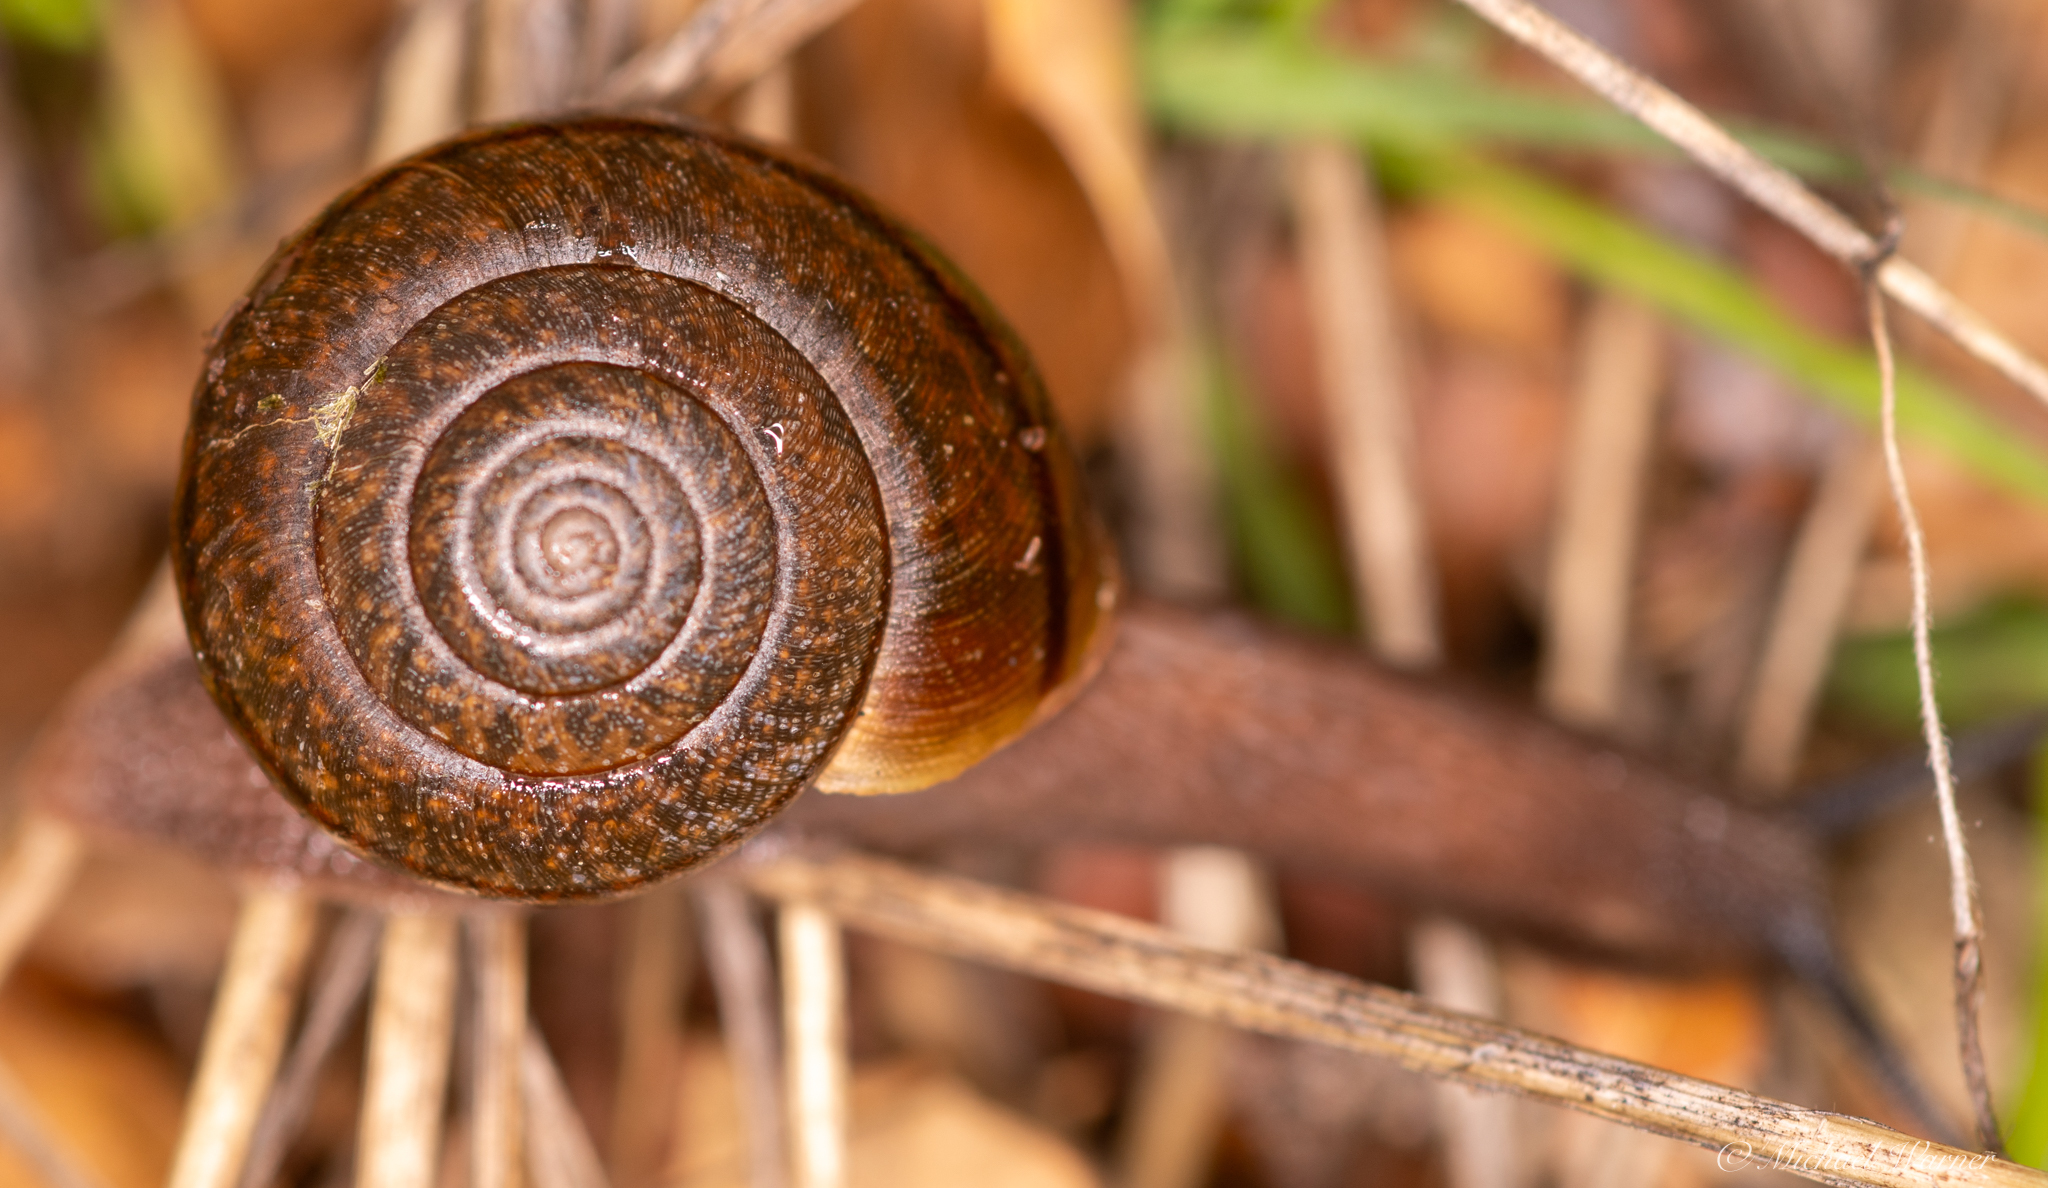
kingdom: Animalia
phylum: Mollusca
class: Gastropoda
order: Stylommatophora
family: Xanthonychidae
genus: Helminthoglypta
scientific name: Helminthoglypta diabloensis
